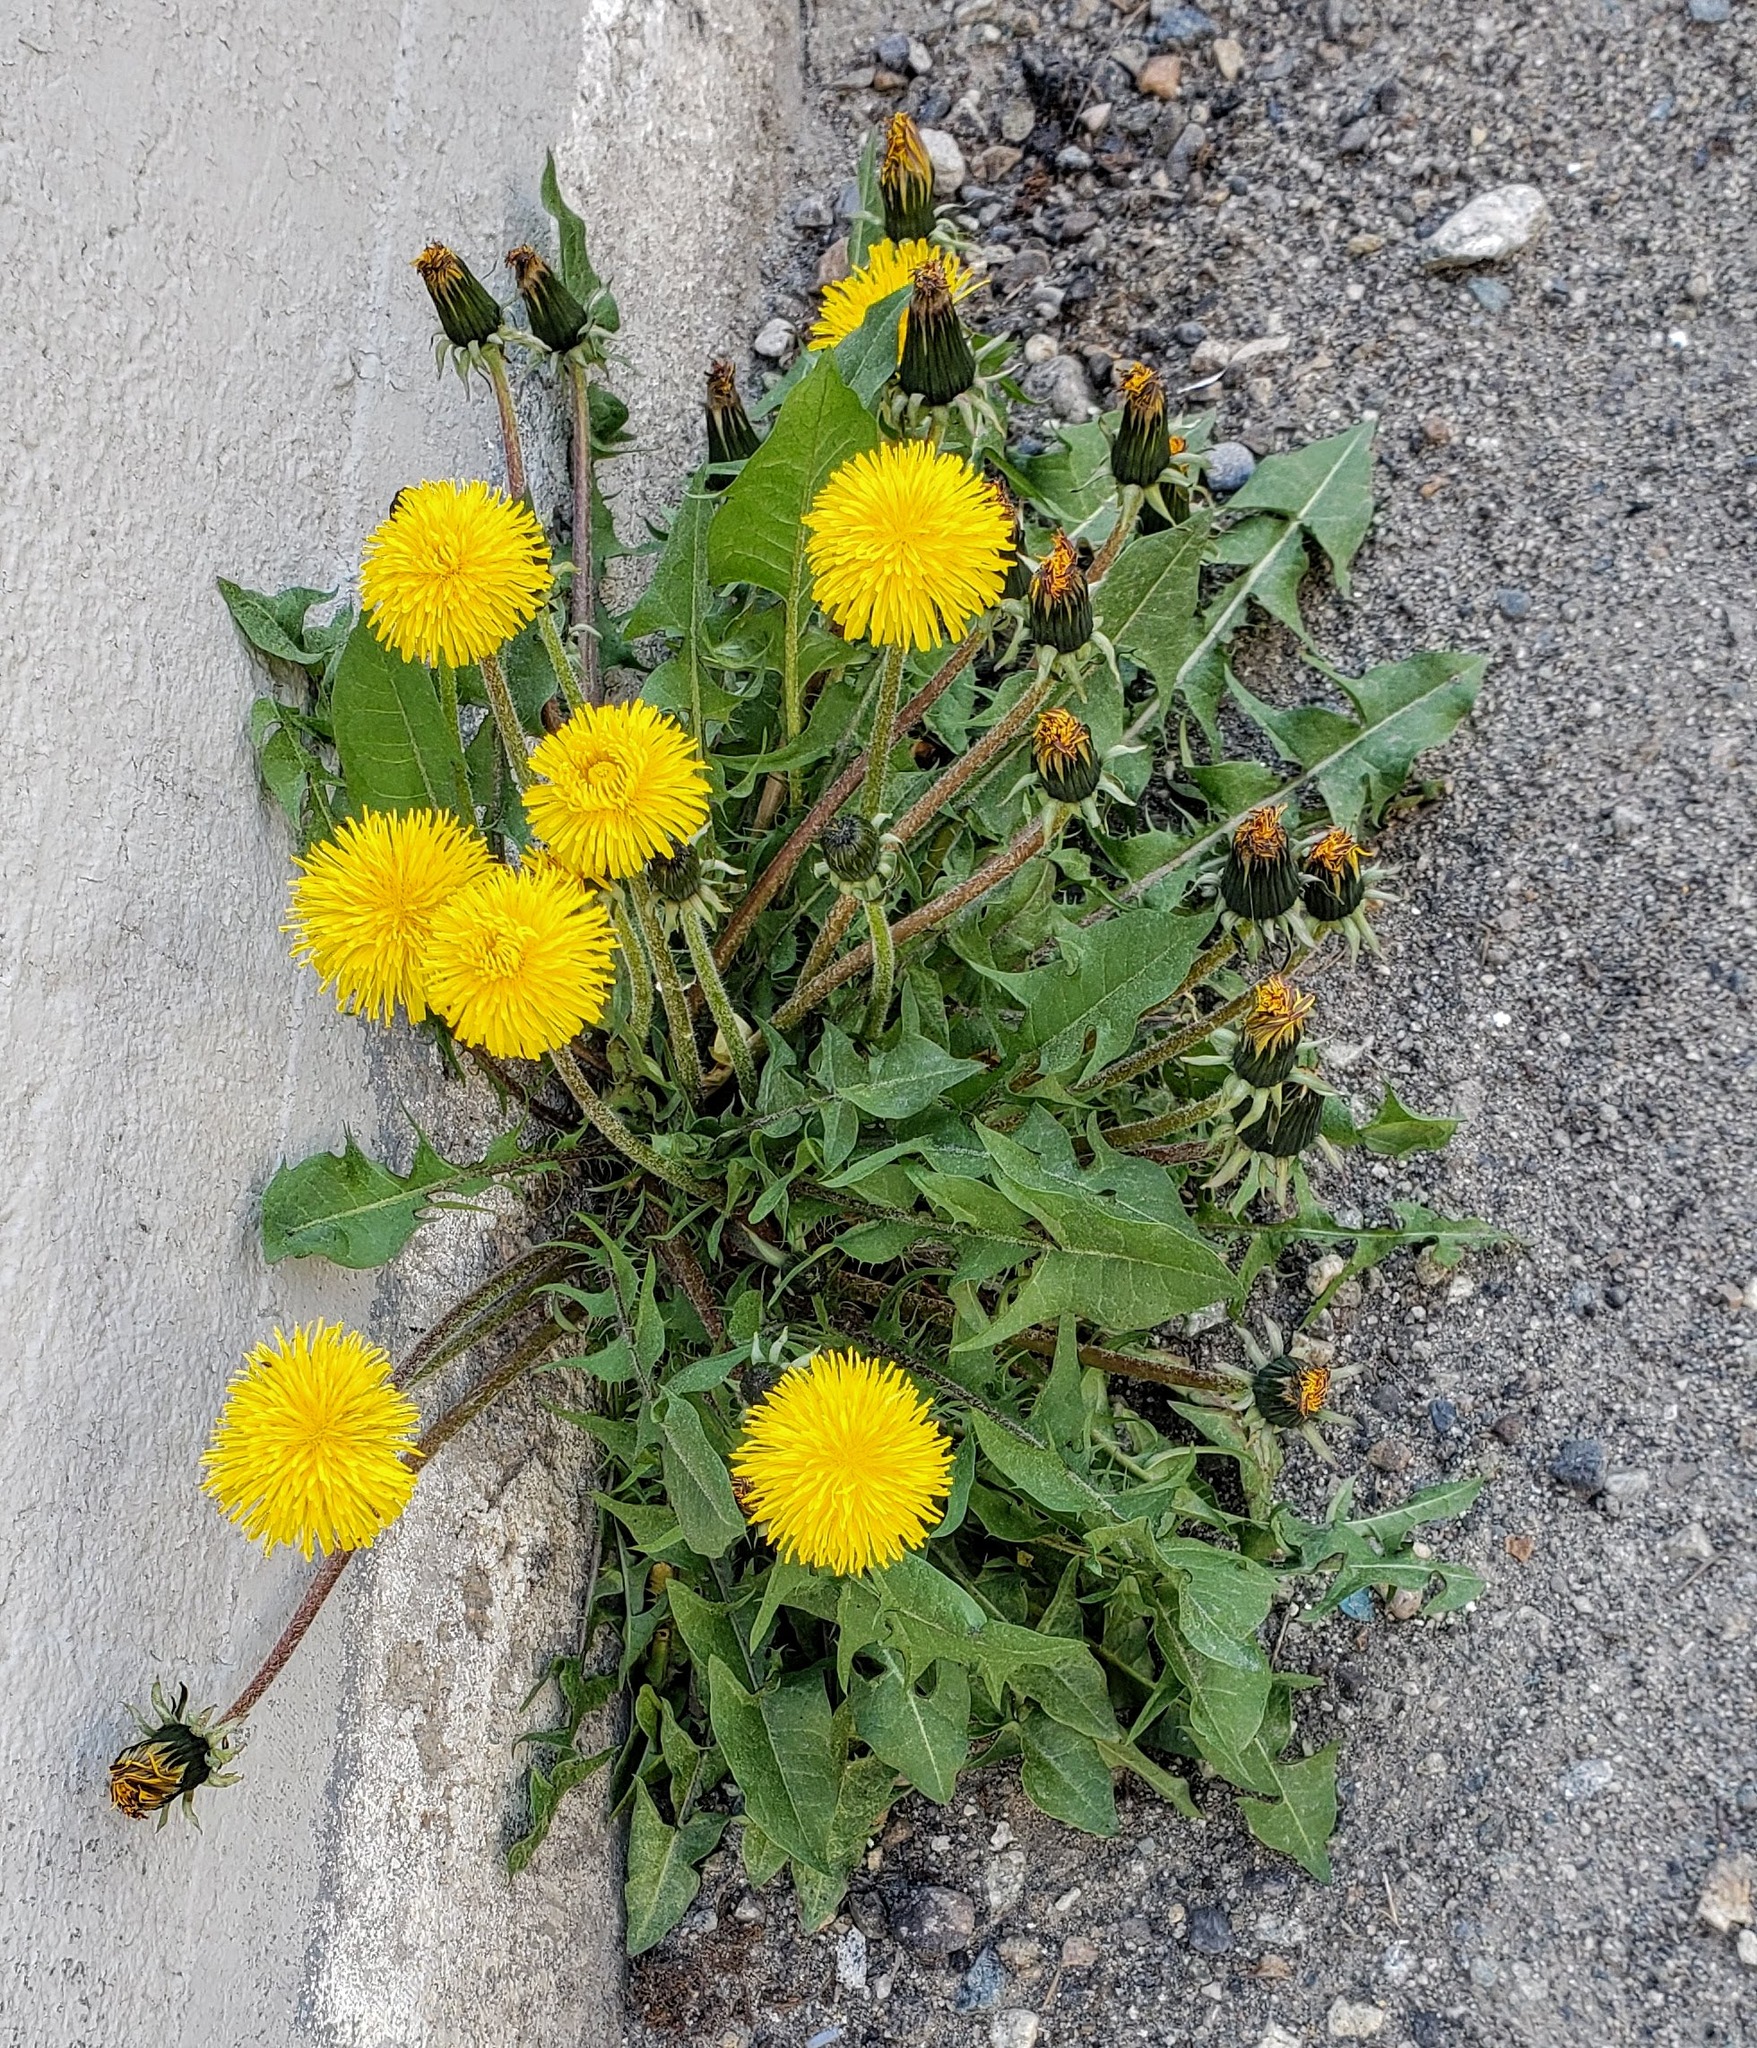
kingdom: Plantae
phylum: Tracheophyta
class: Magnoliopsida
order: Asterales
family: Asteraceae
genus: Taraxacum
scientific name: Taraxacum officinale
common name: Common dandelion
